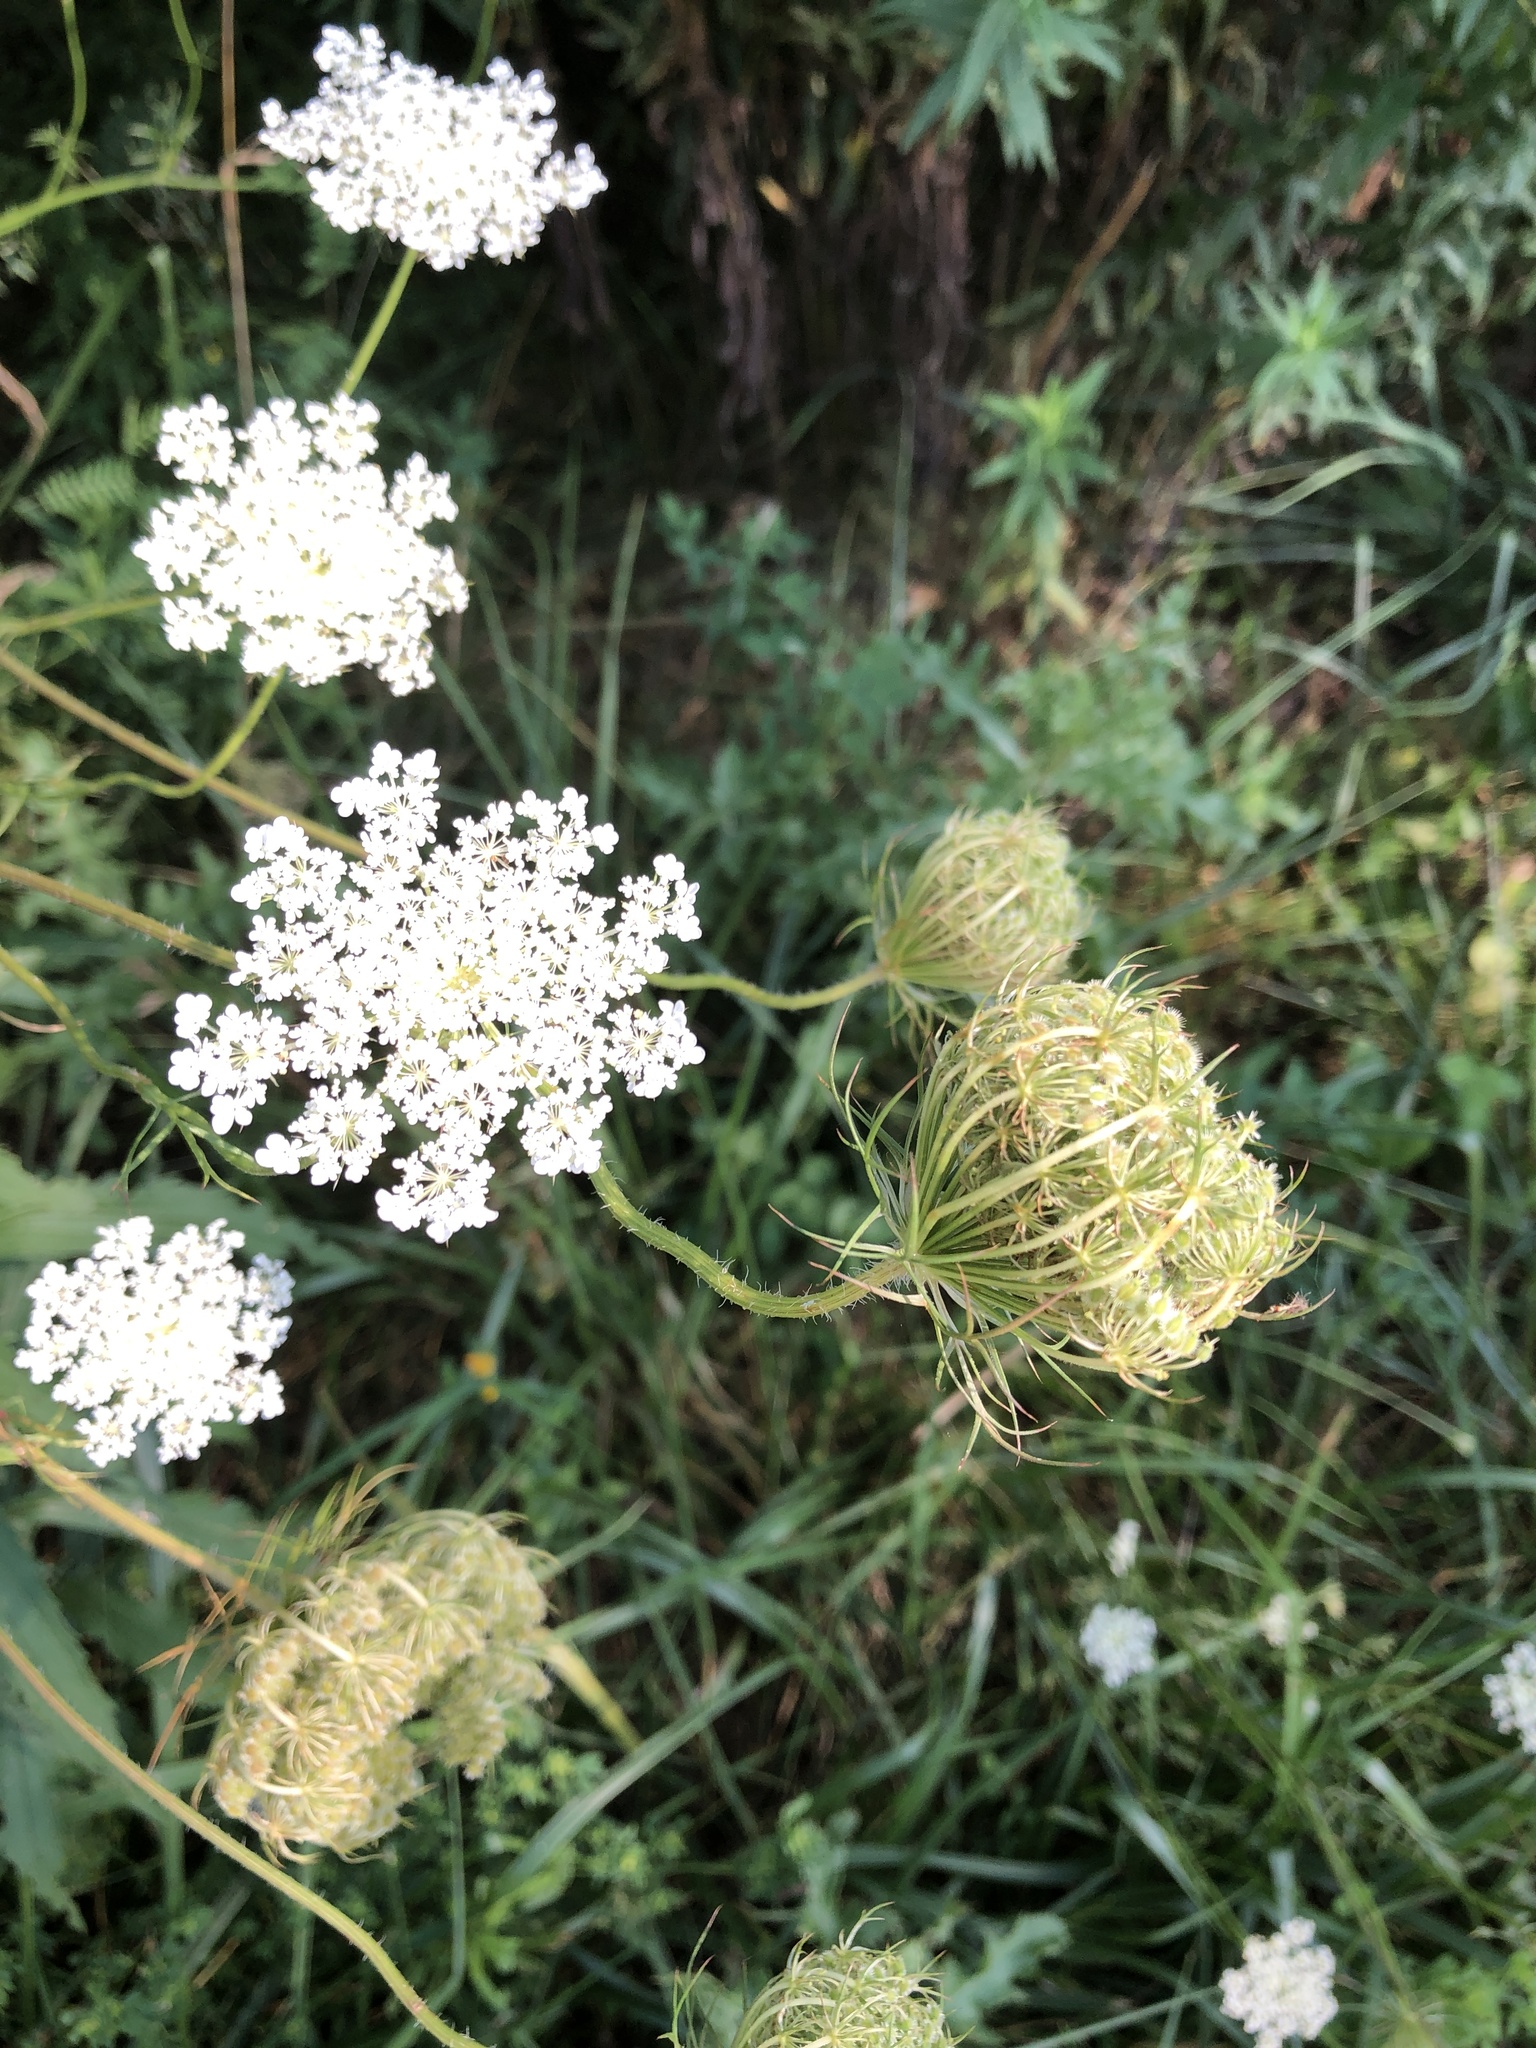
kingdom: Plantae
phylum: Tracheophyta
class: Magnoliopsida
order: Apiales
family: Apiaceae
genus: Daucus
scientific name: Daucus carota
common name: Wild carrot
